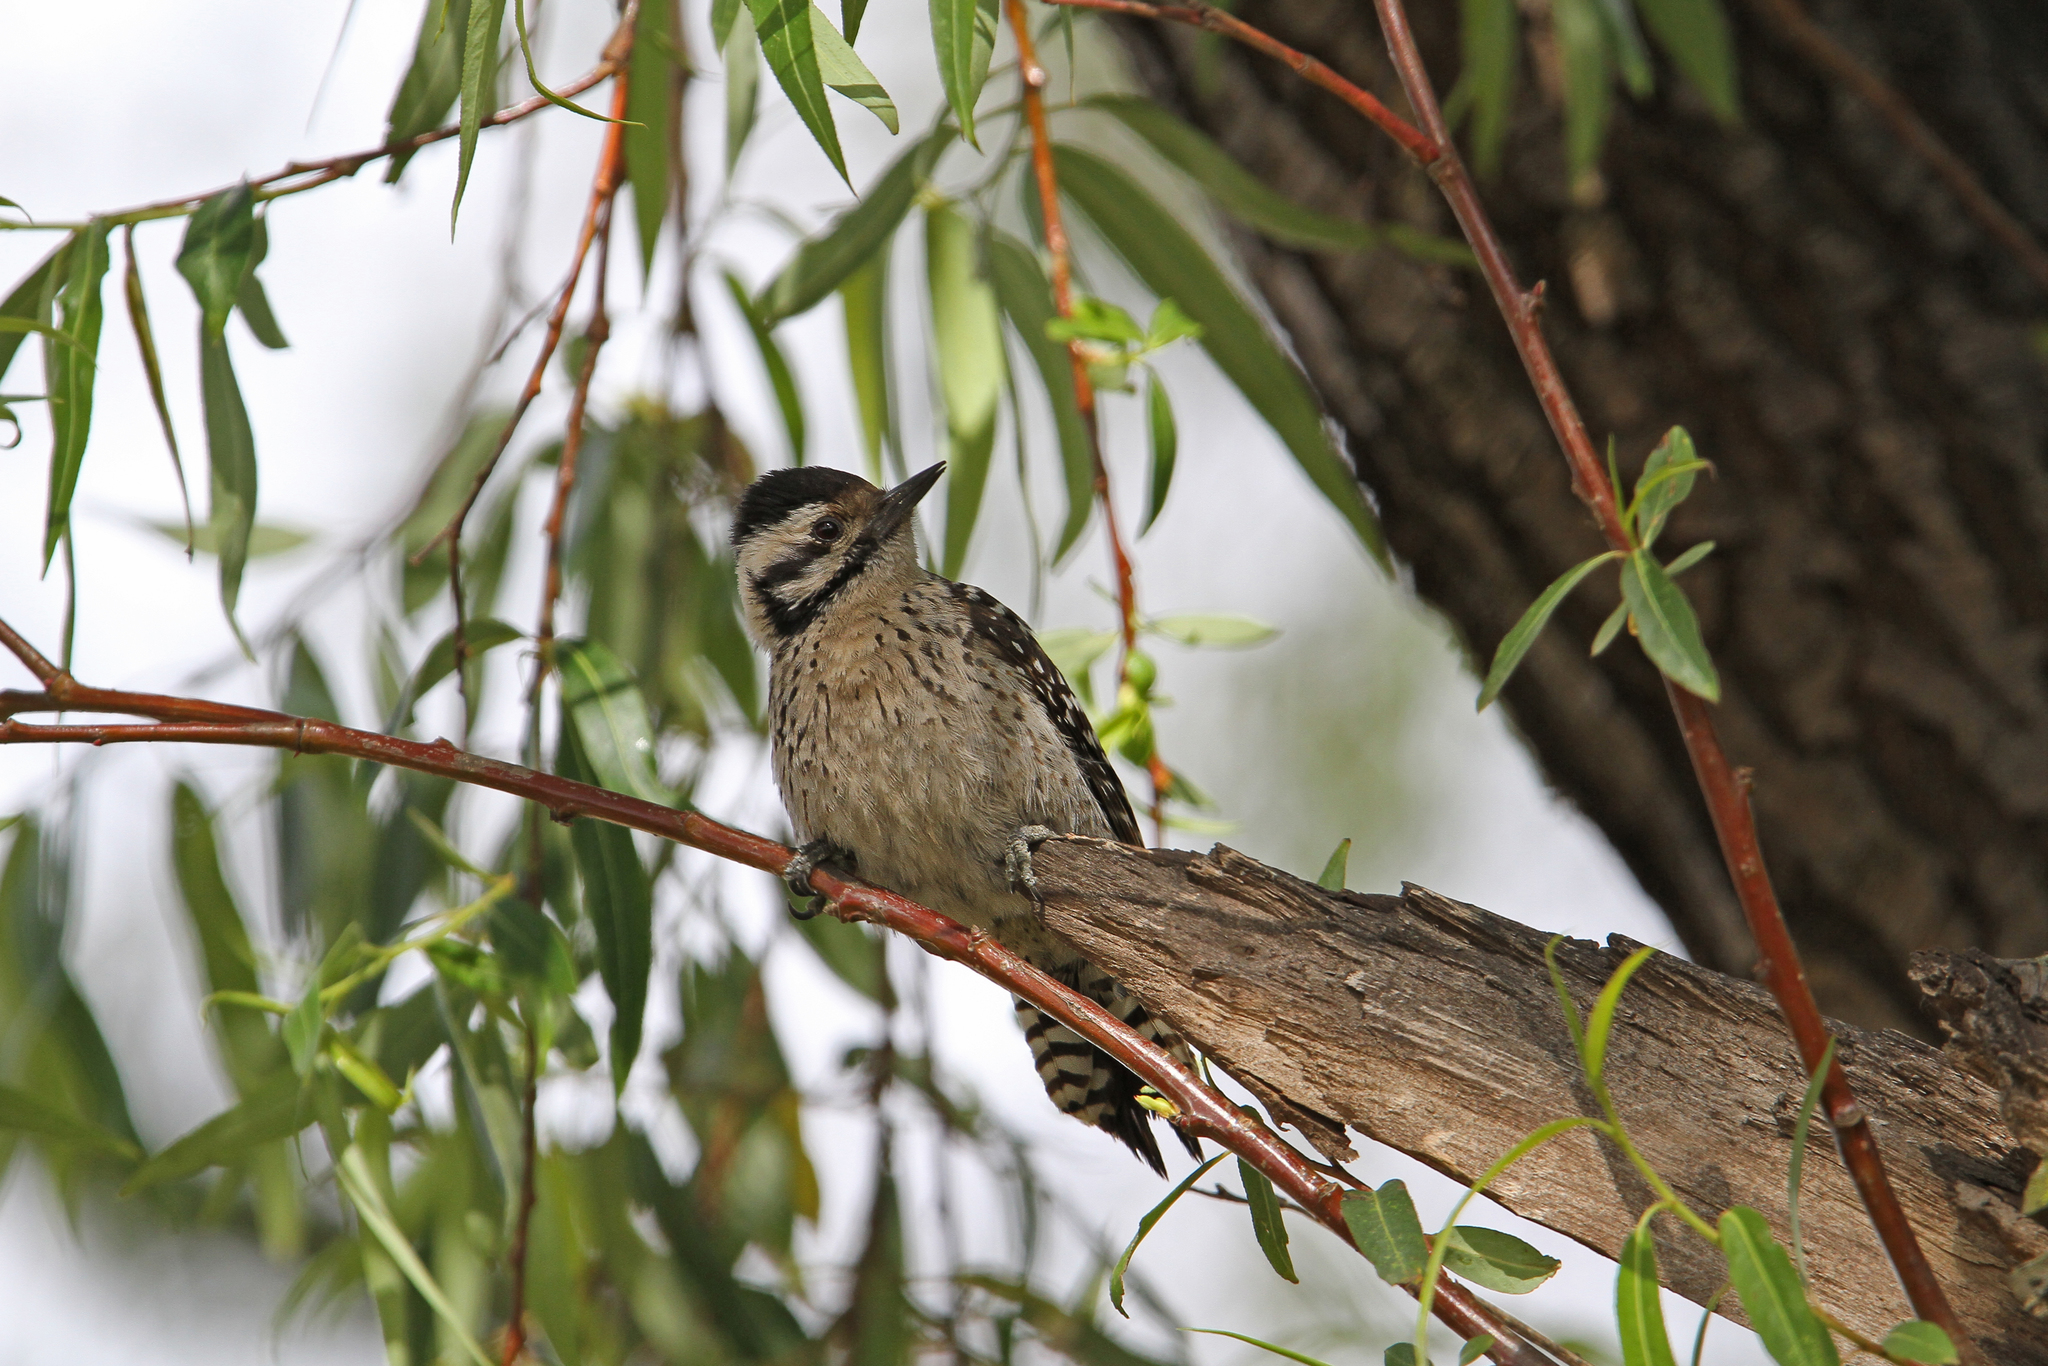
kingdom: Animalia
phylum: Chordata
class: Aves
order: Piciformes
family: Picidae
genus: Dryobates
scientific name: Dryobates scalaris
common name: Ladder-backed woodpecker
